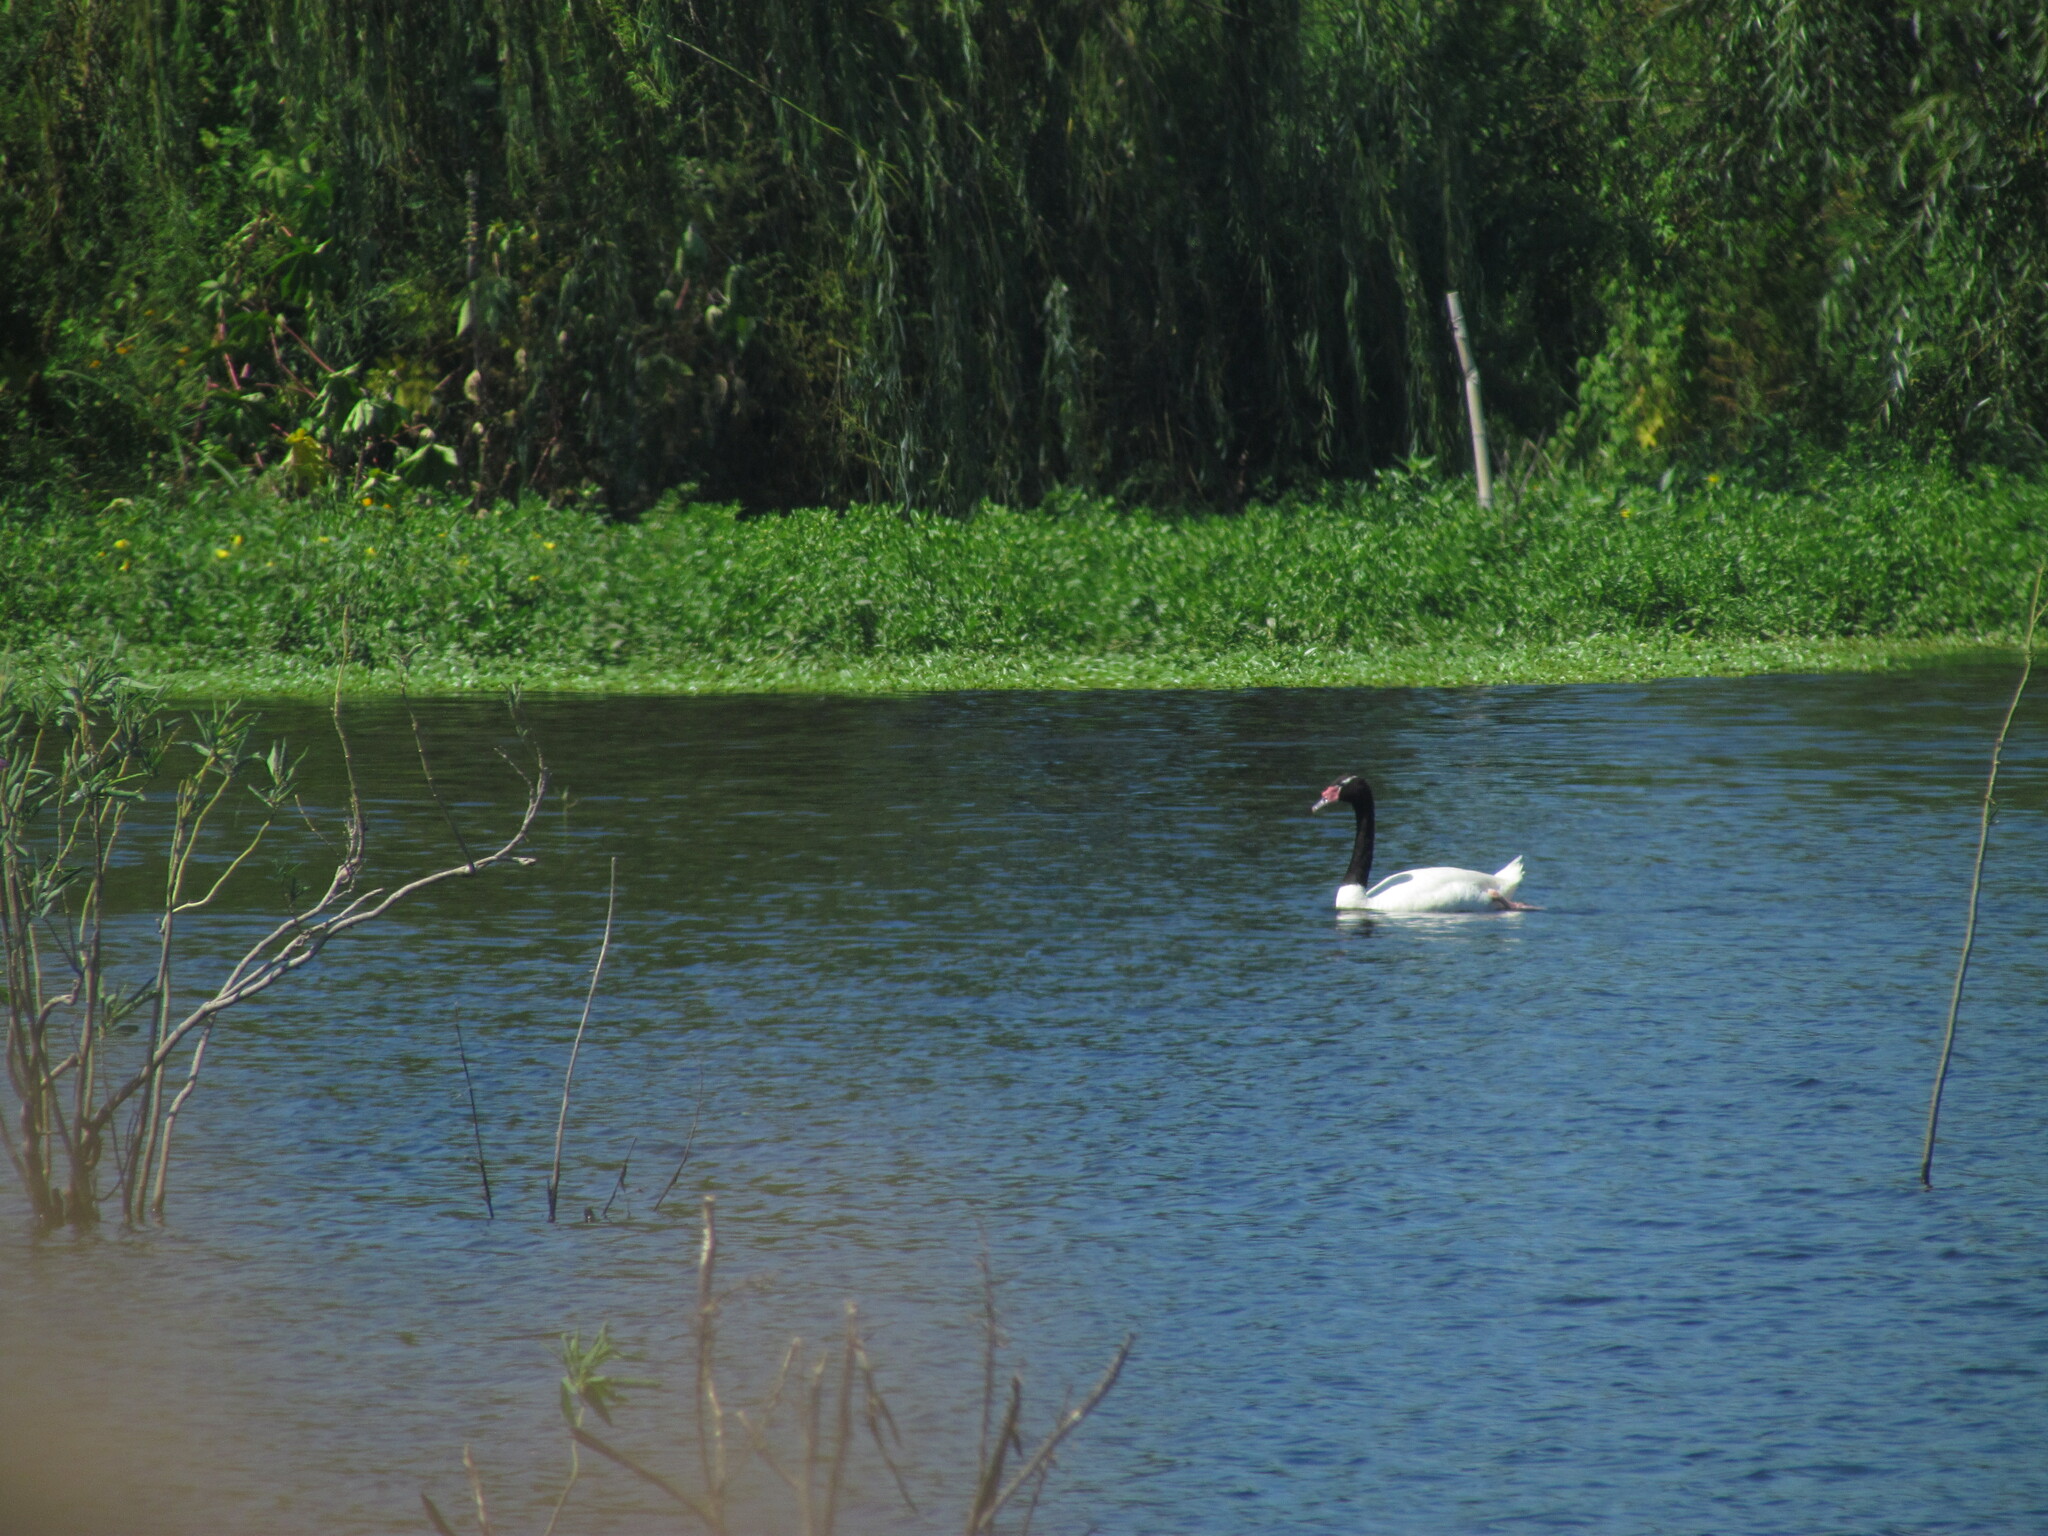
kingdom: Animalia
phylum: Chordata
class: Aves
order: Anseriformes
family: Anatidae
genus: Cygnus
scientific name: Cygnus melancoryphus
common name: Black-necked swan
